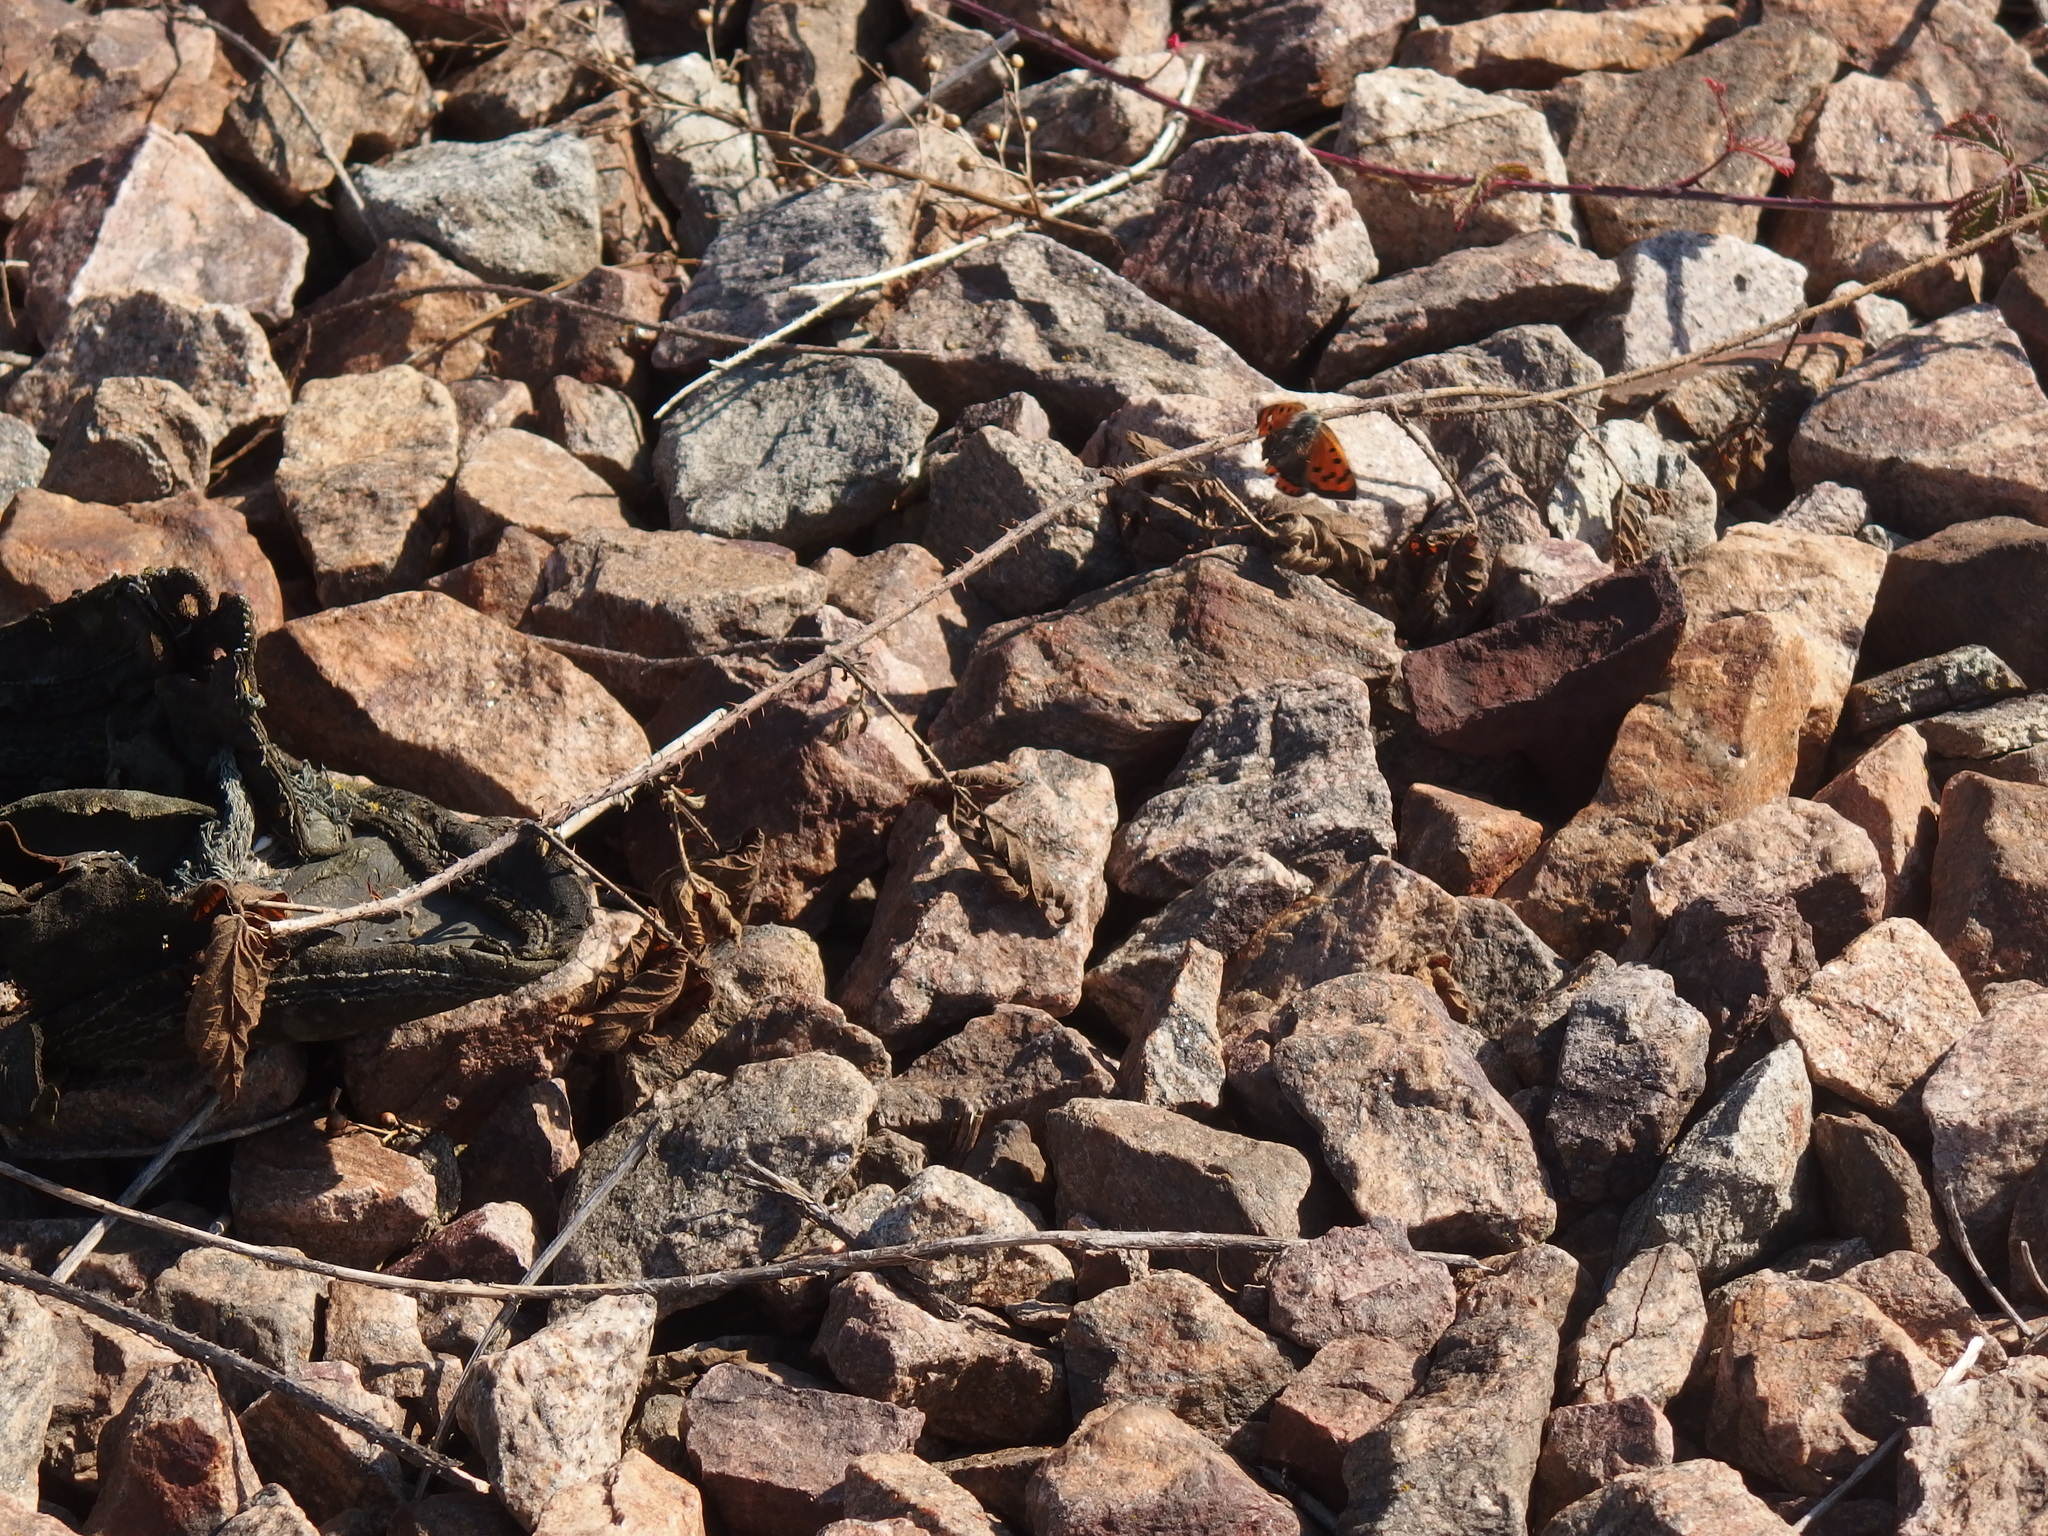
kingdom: Animalia
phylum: Arthropoda
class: Insecta
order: Lepidoptera
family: Lycaenidae
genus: Lycaena
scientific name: Lycaena phlaeas
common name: Small copper
